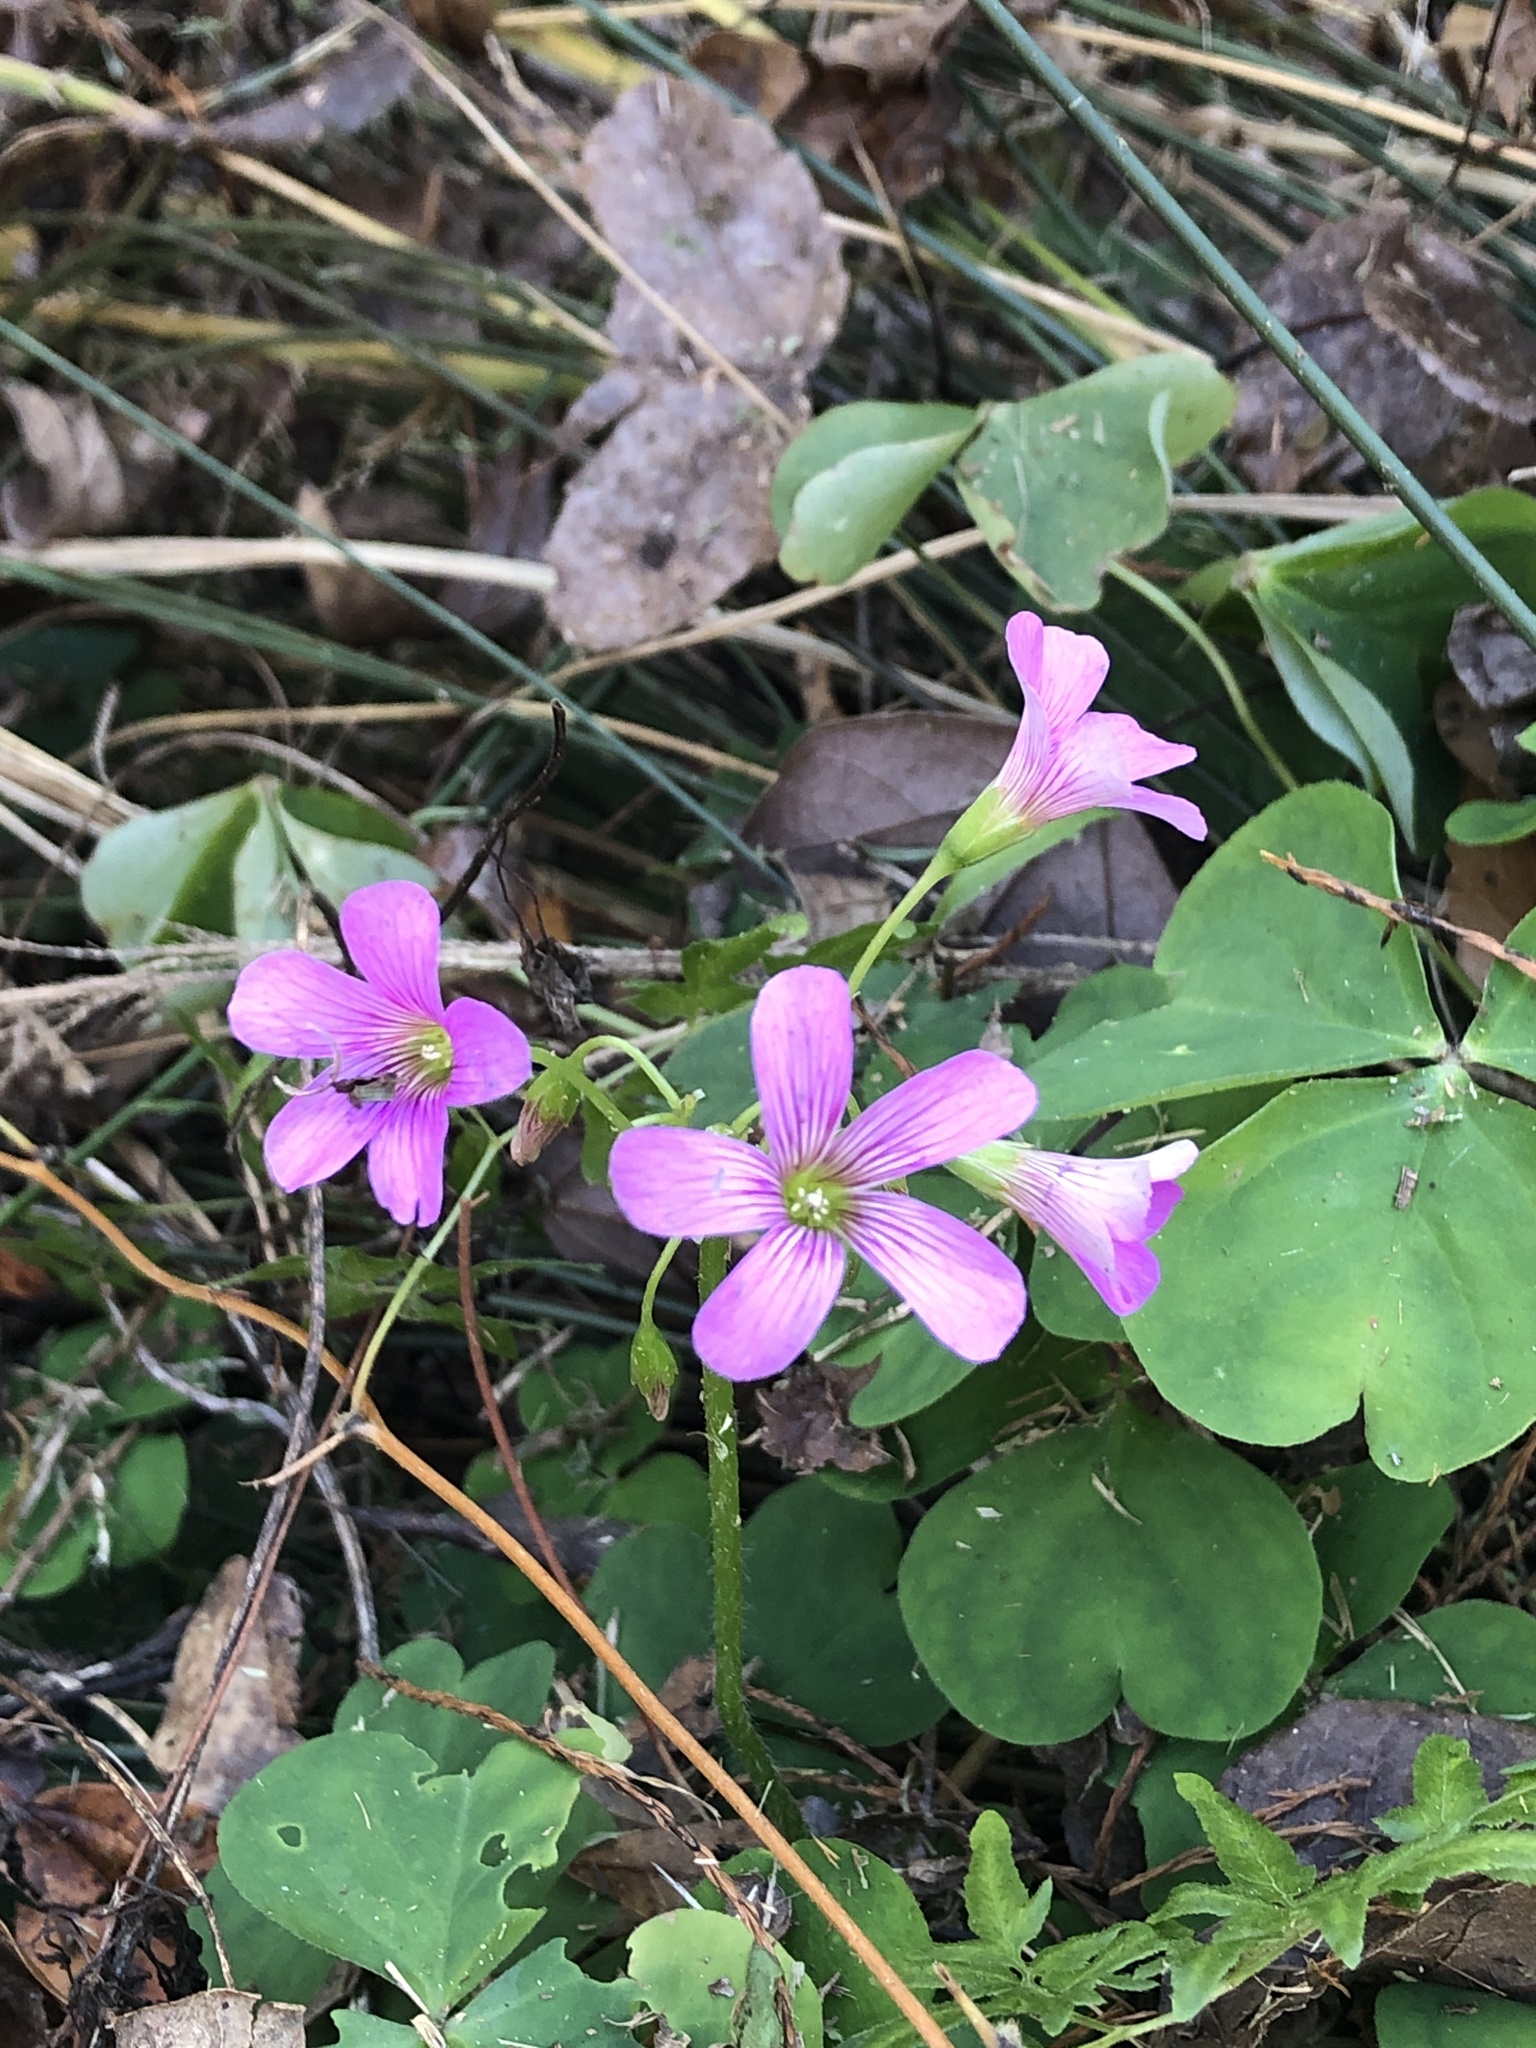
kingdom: Plantae
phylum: Tracheophyta
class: Magnoliopsida
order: Oxalidales
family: Oxalidaceae
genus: Oxalis
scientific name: Oxalis debilis
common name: Large-flowered pink-sorrel
